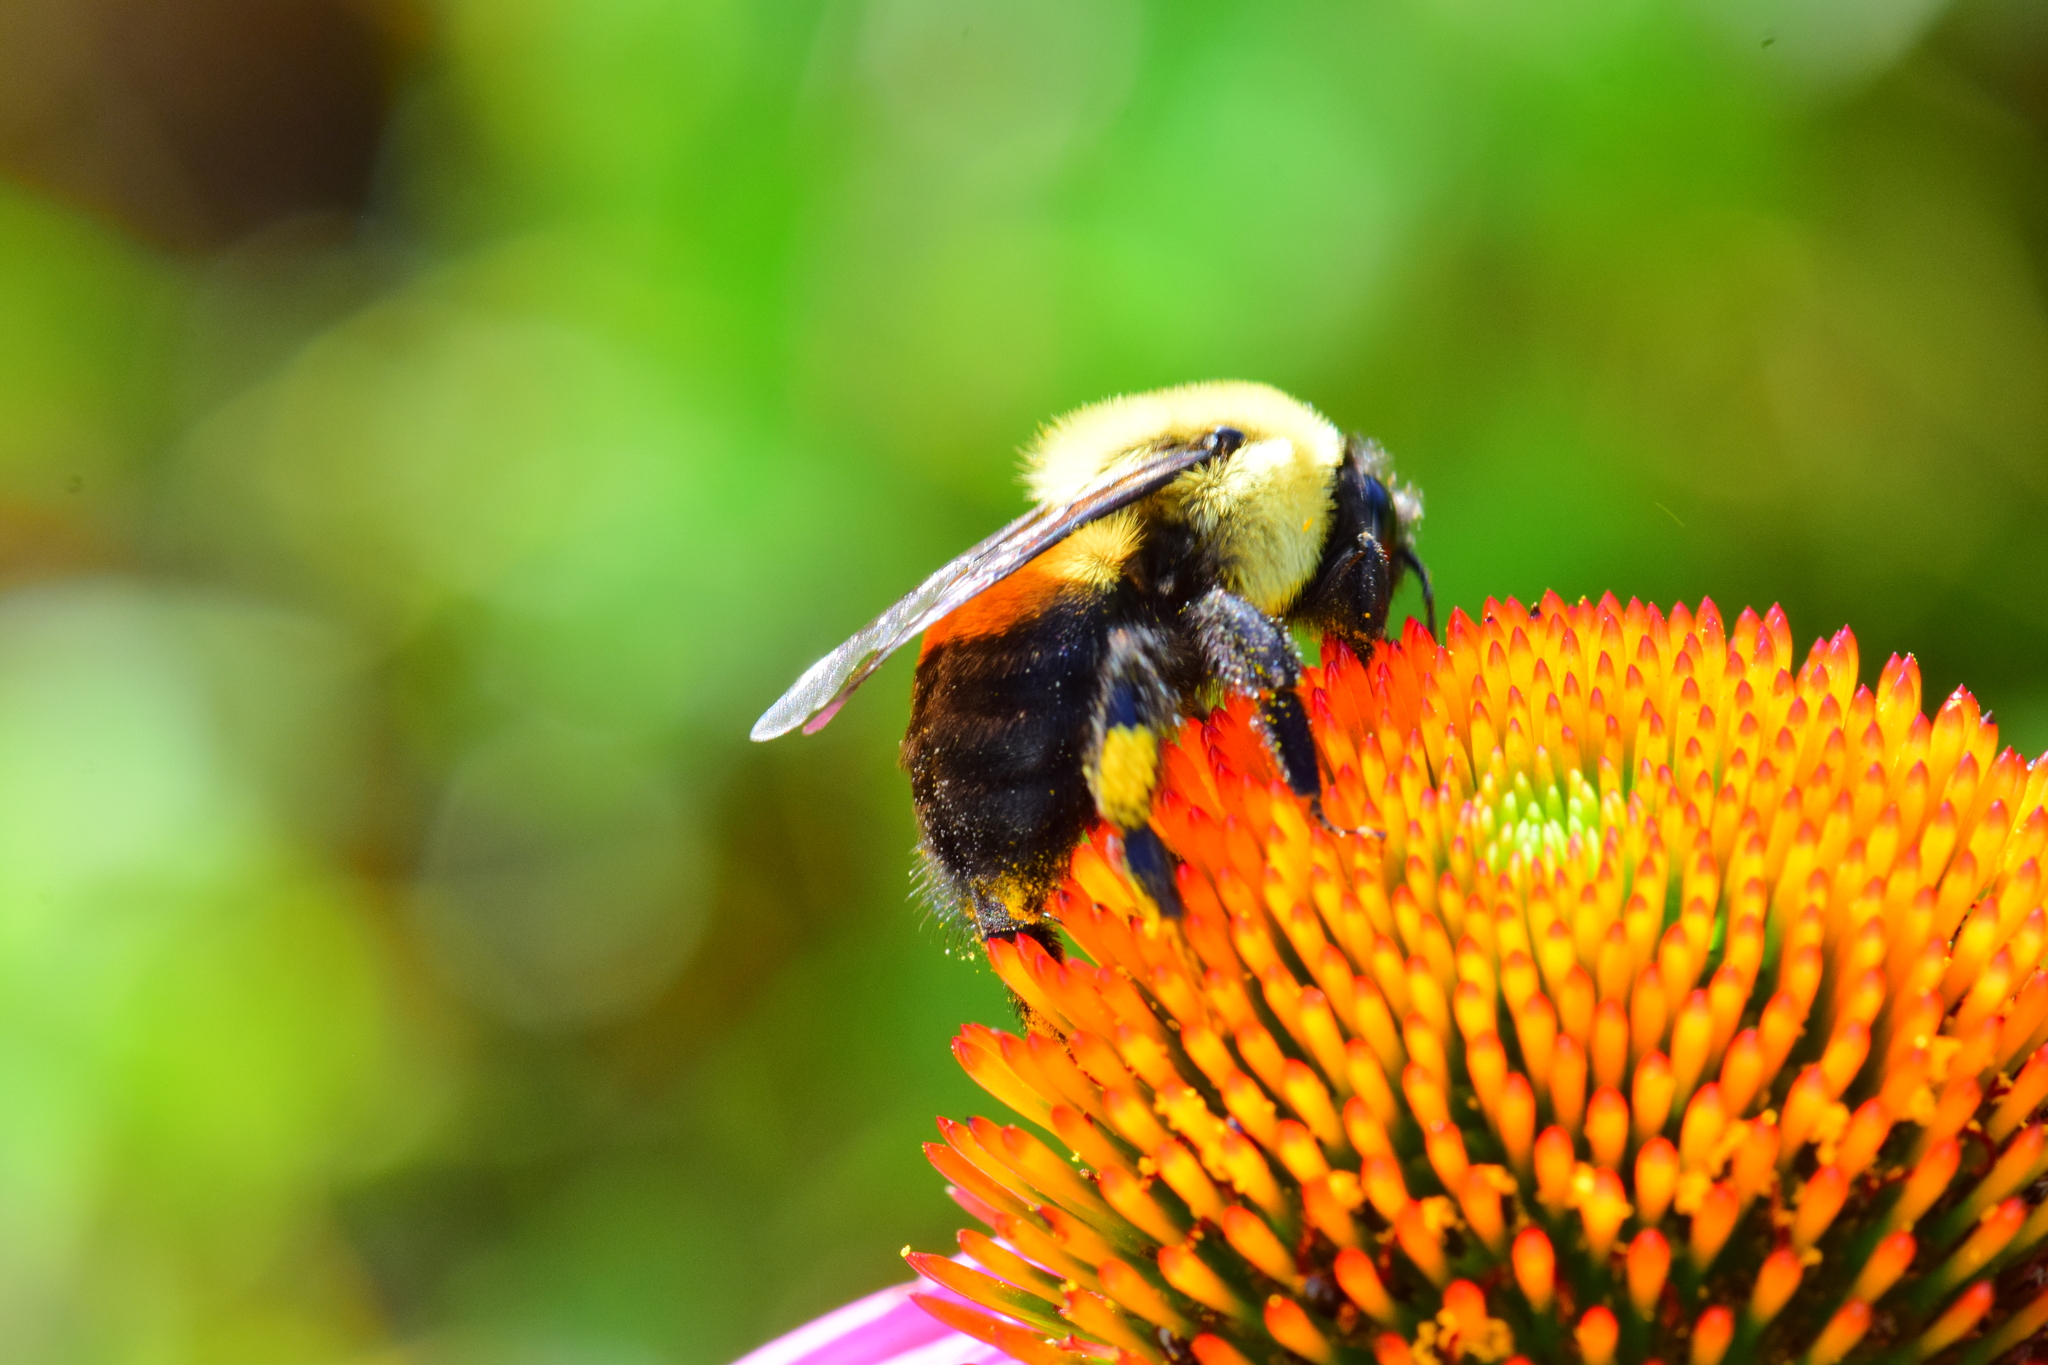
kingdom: Animalia
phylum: Arthropoda
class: Insecta
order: Hymenoptera
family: Apidae
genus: Bombus
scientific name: Bombus griseocollis
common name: Brown-belted bumble bee
